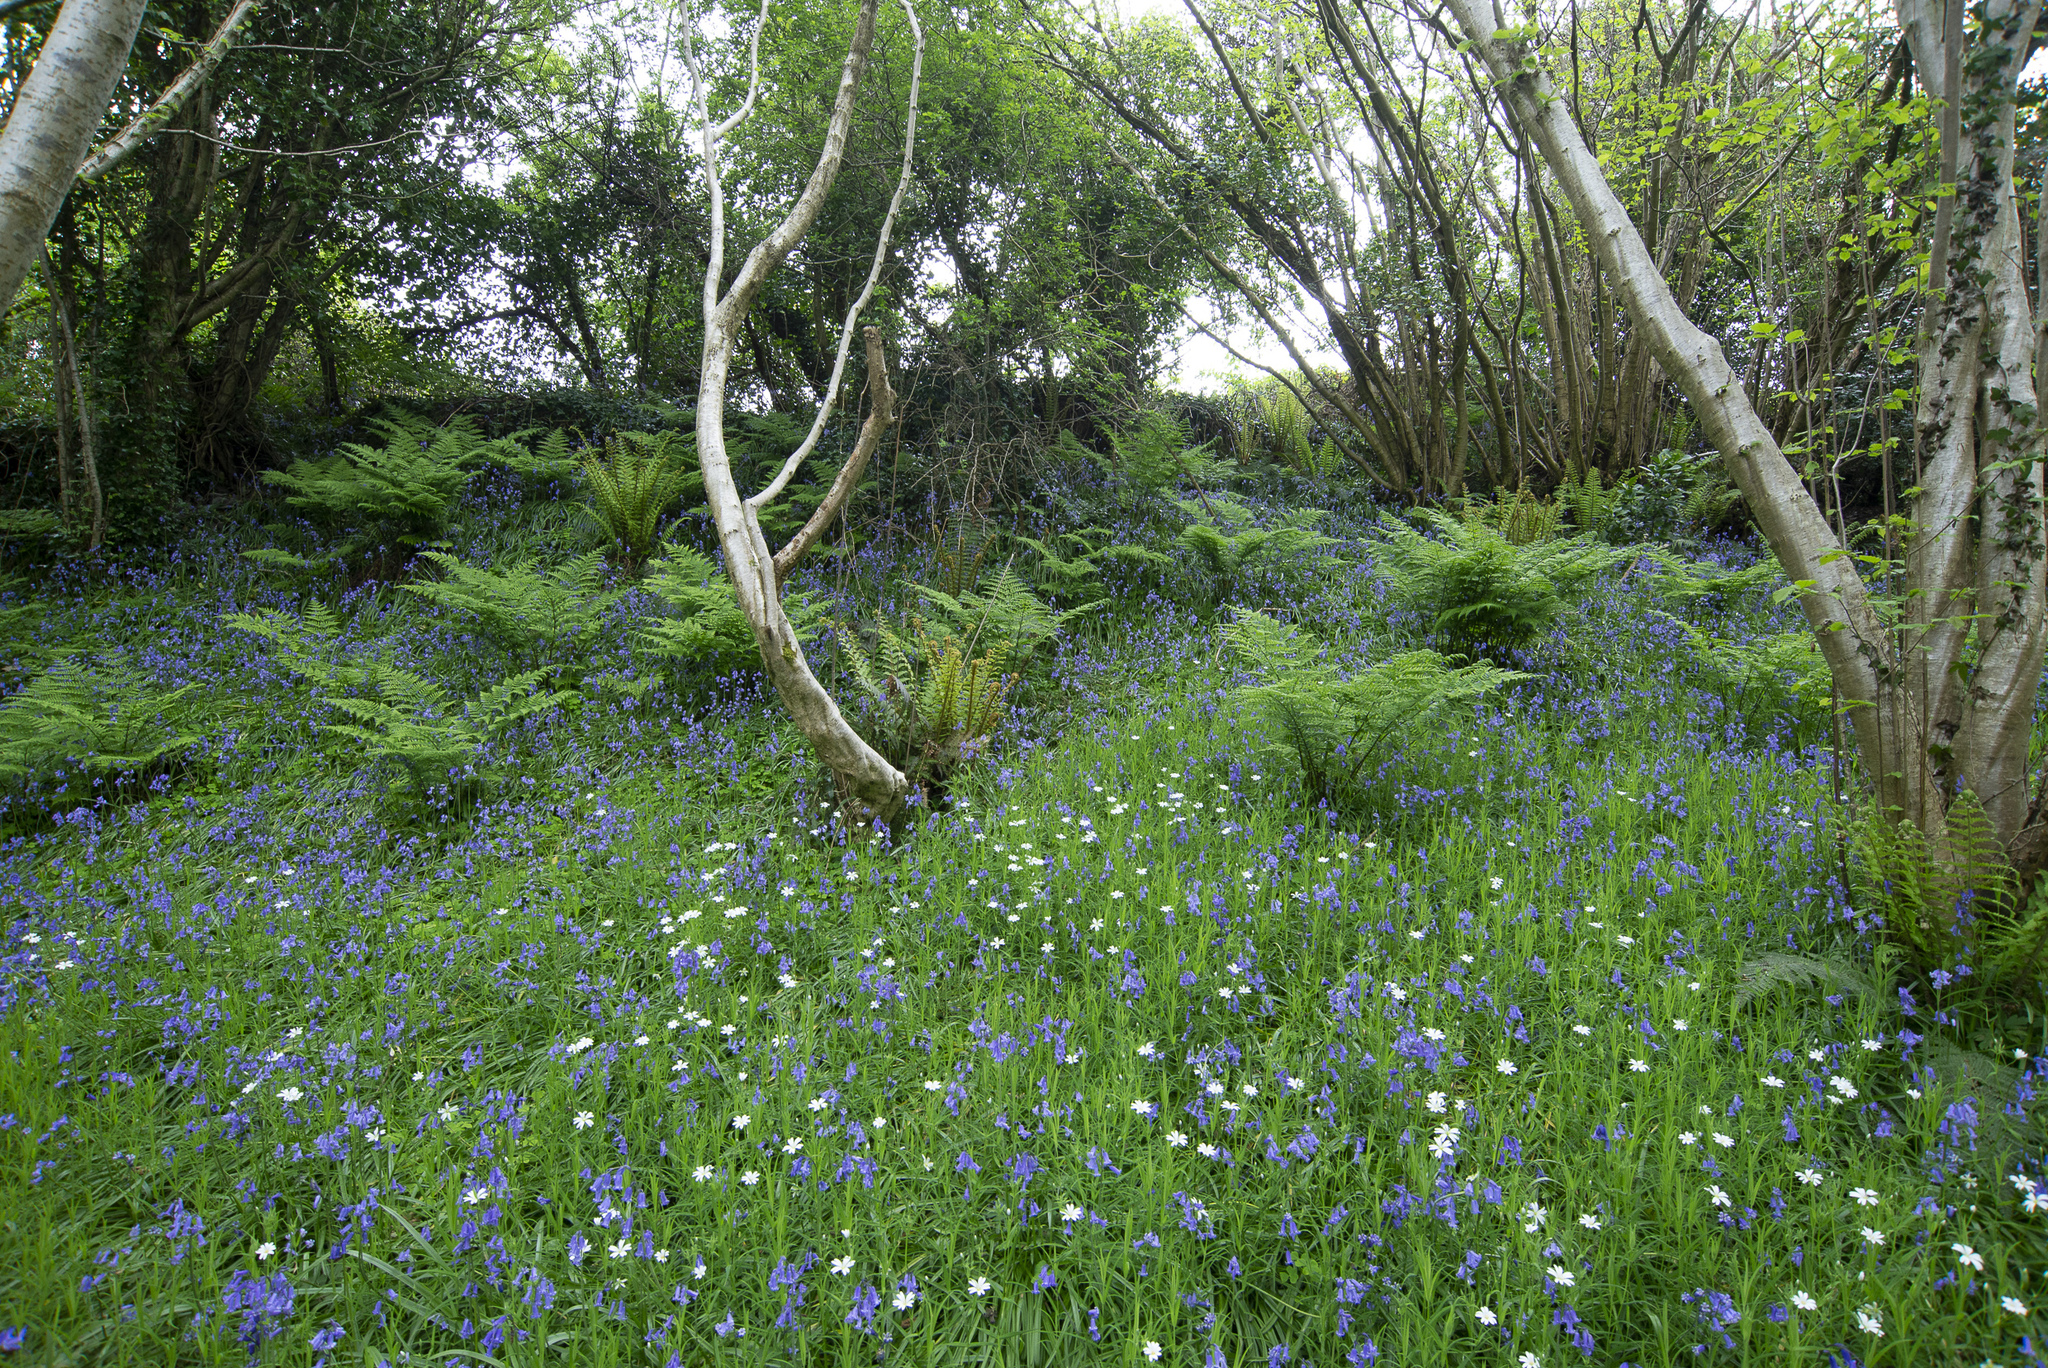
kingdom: Plantae
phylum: Tracheophyta
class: Magnoliopsida
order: Caryophyllales
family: Caryophyllaceae
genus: Rabelera
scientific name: Rabelera holostea
